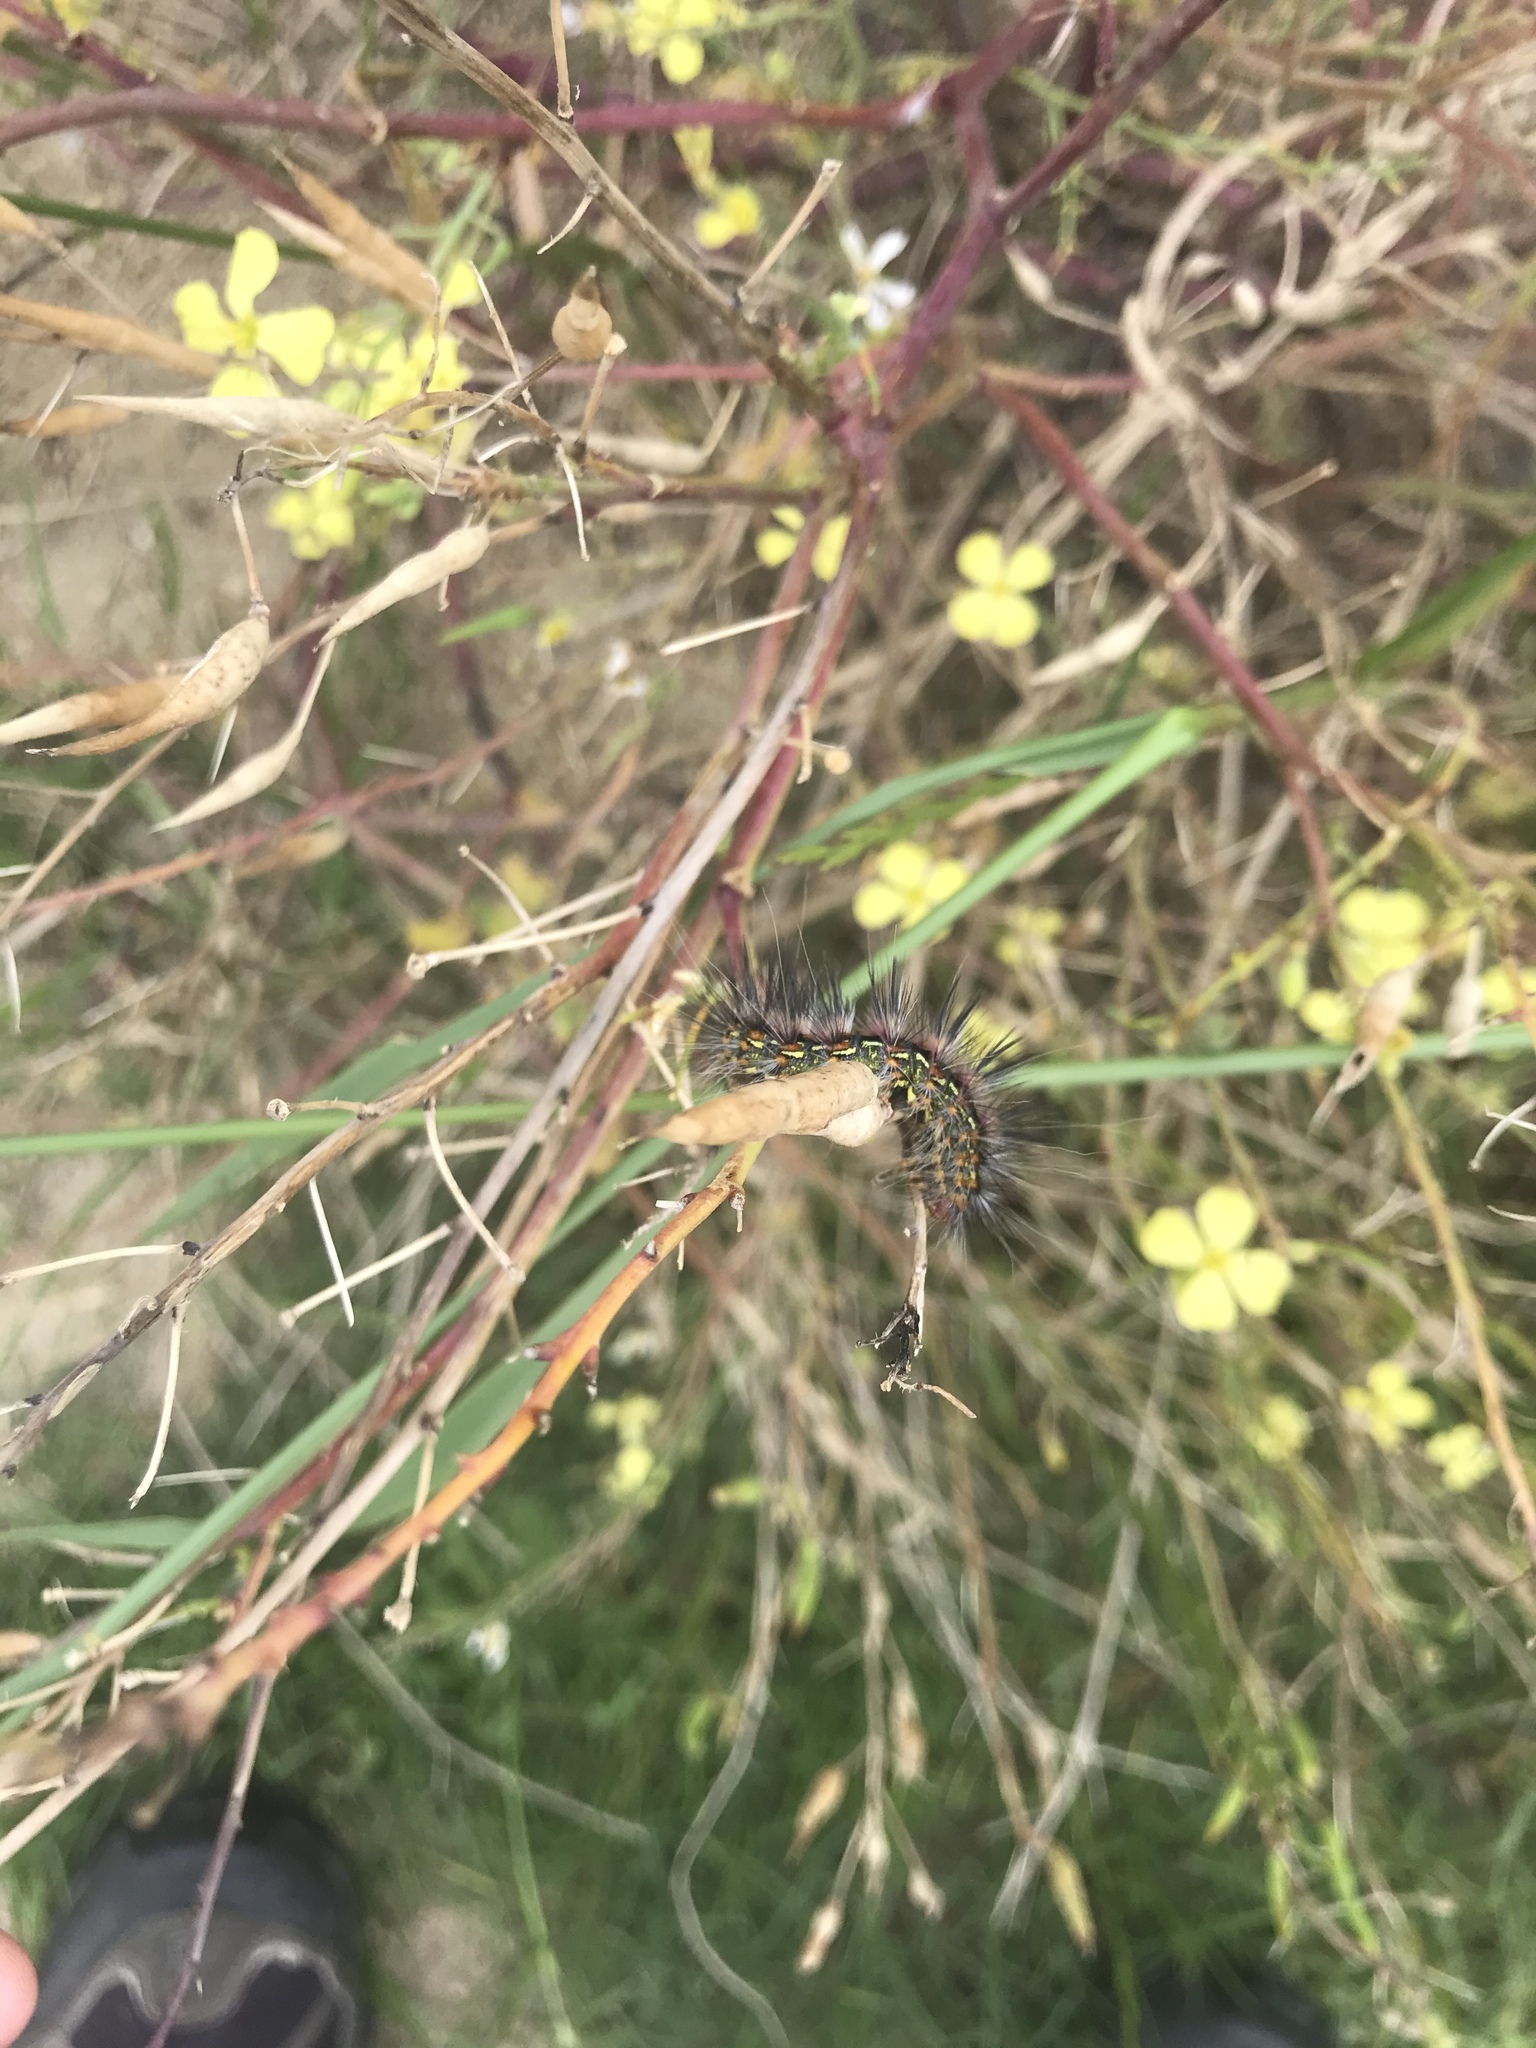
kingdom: Animalia
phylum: Arthropoda
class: Insecta
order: Lepidoptera
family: Erebidae
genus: Paralacydes
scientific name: Paralacydes vocula
